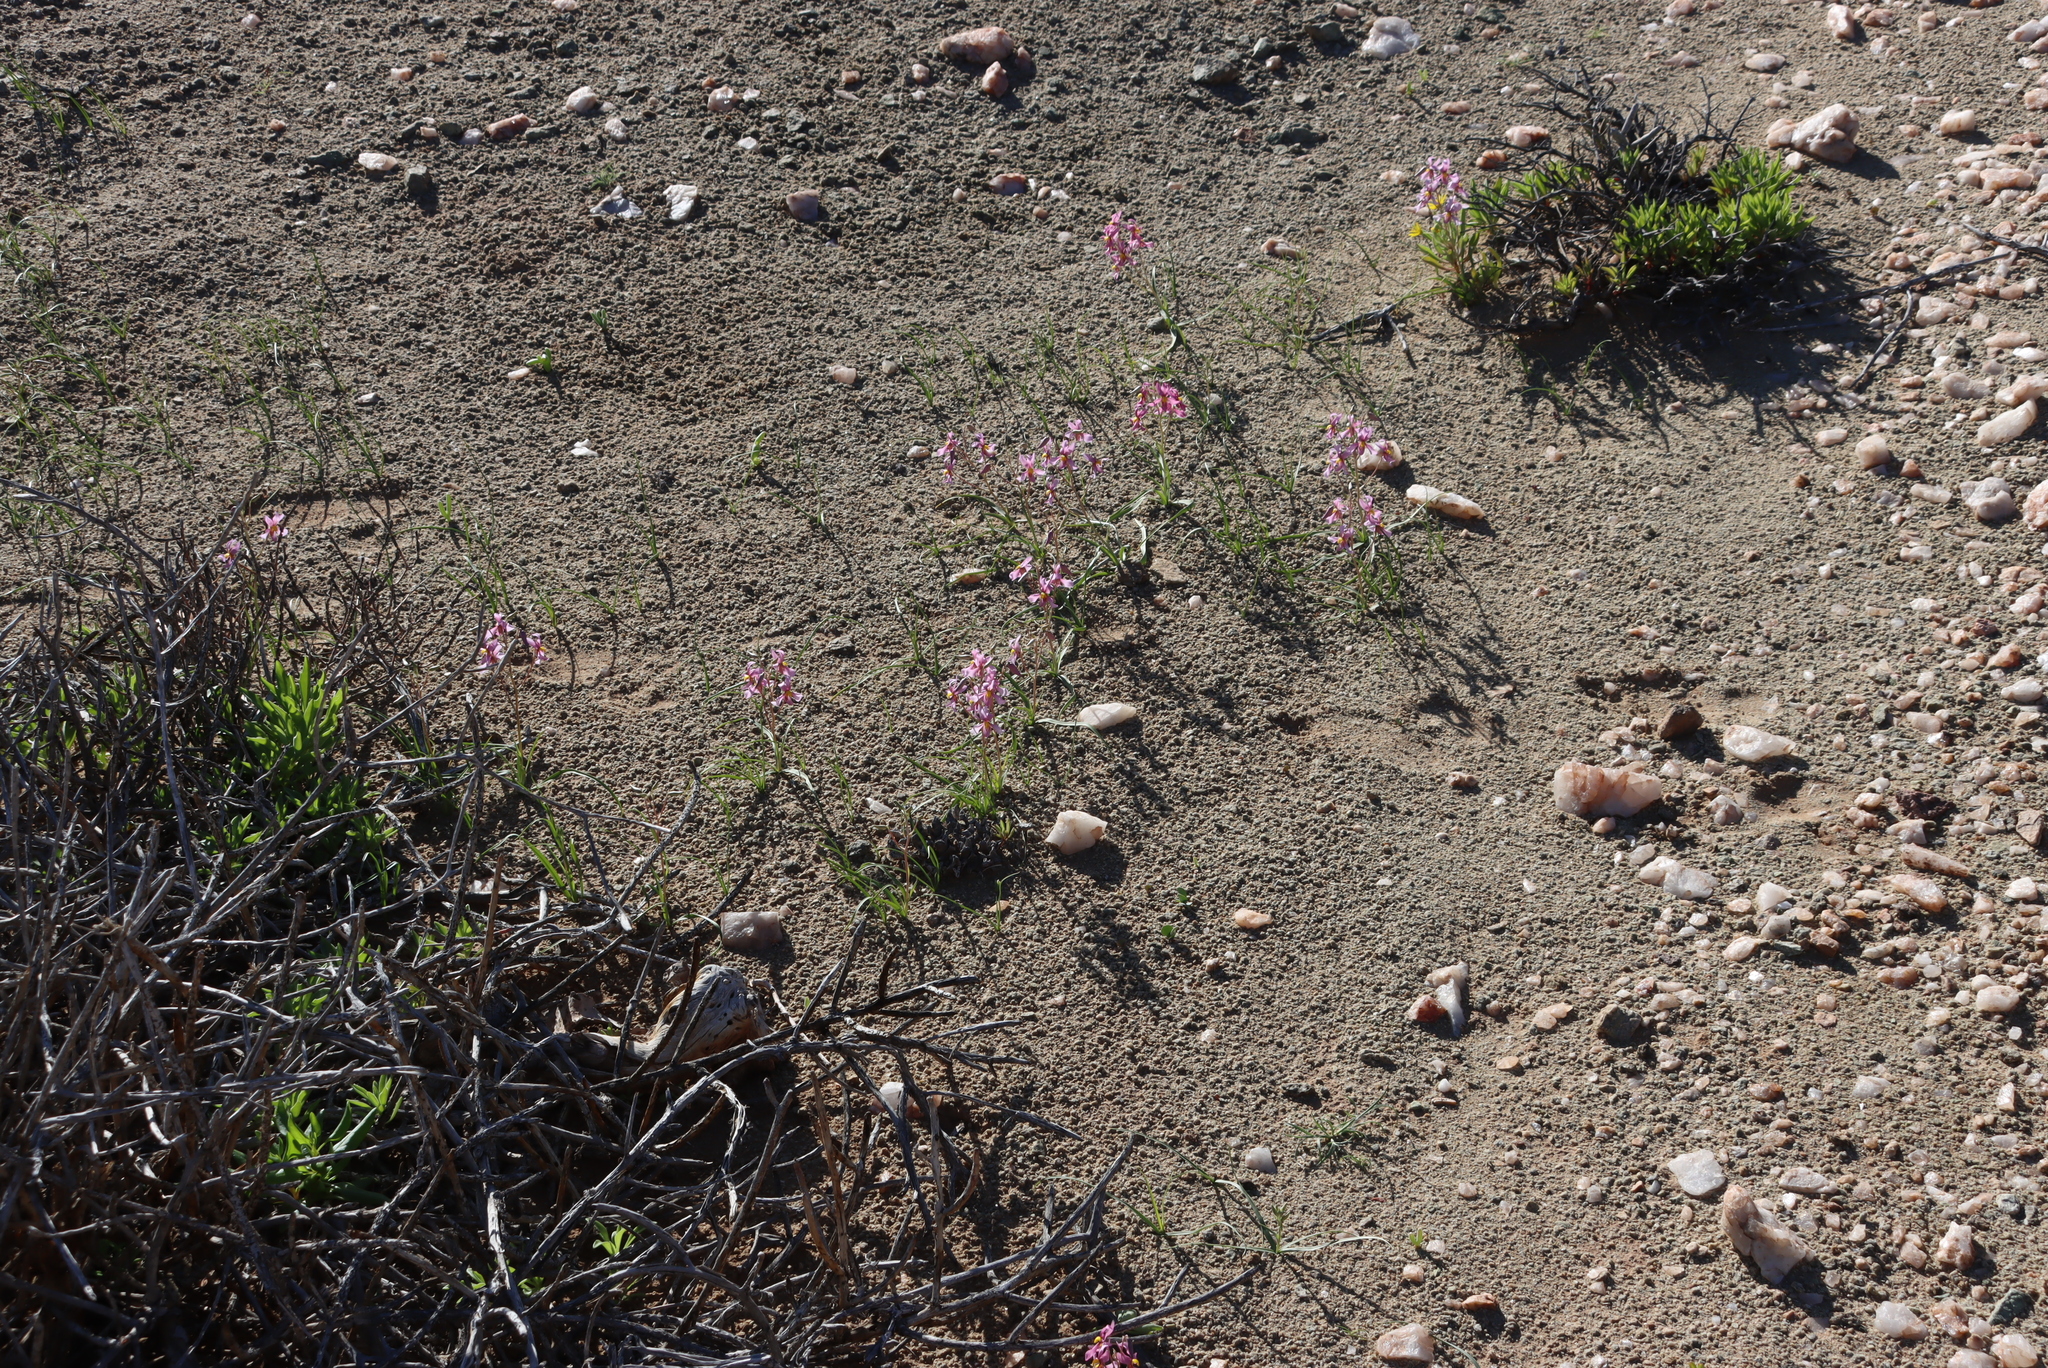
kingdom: Plantae
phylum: Tracheophyta
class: Liliopsida
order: Asparagales
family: Tecophilaeaceae
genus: Cyanella
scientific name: Cyanella ramosissima
